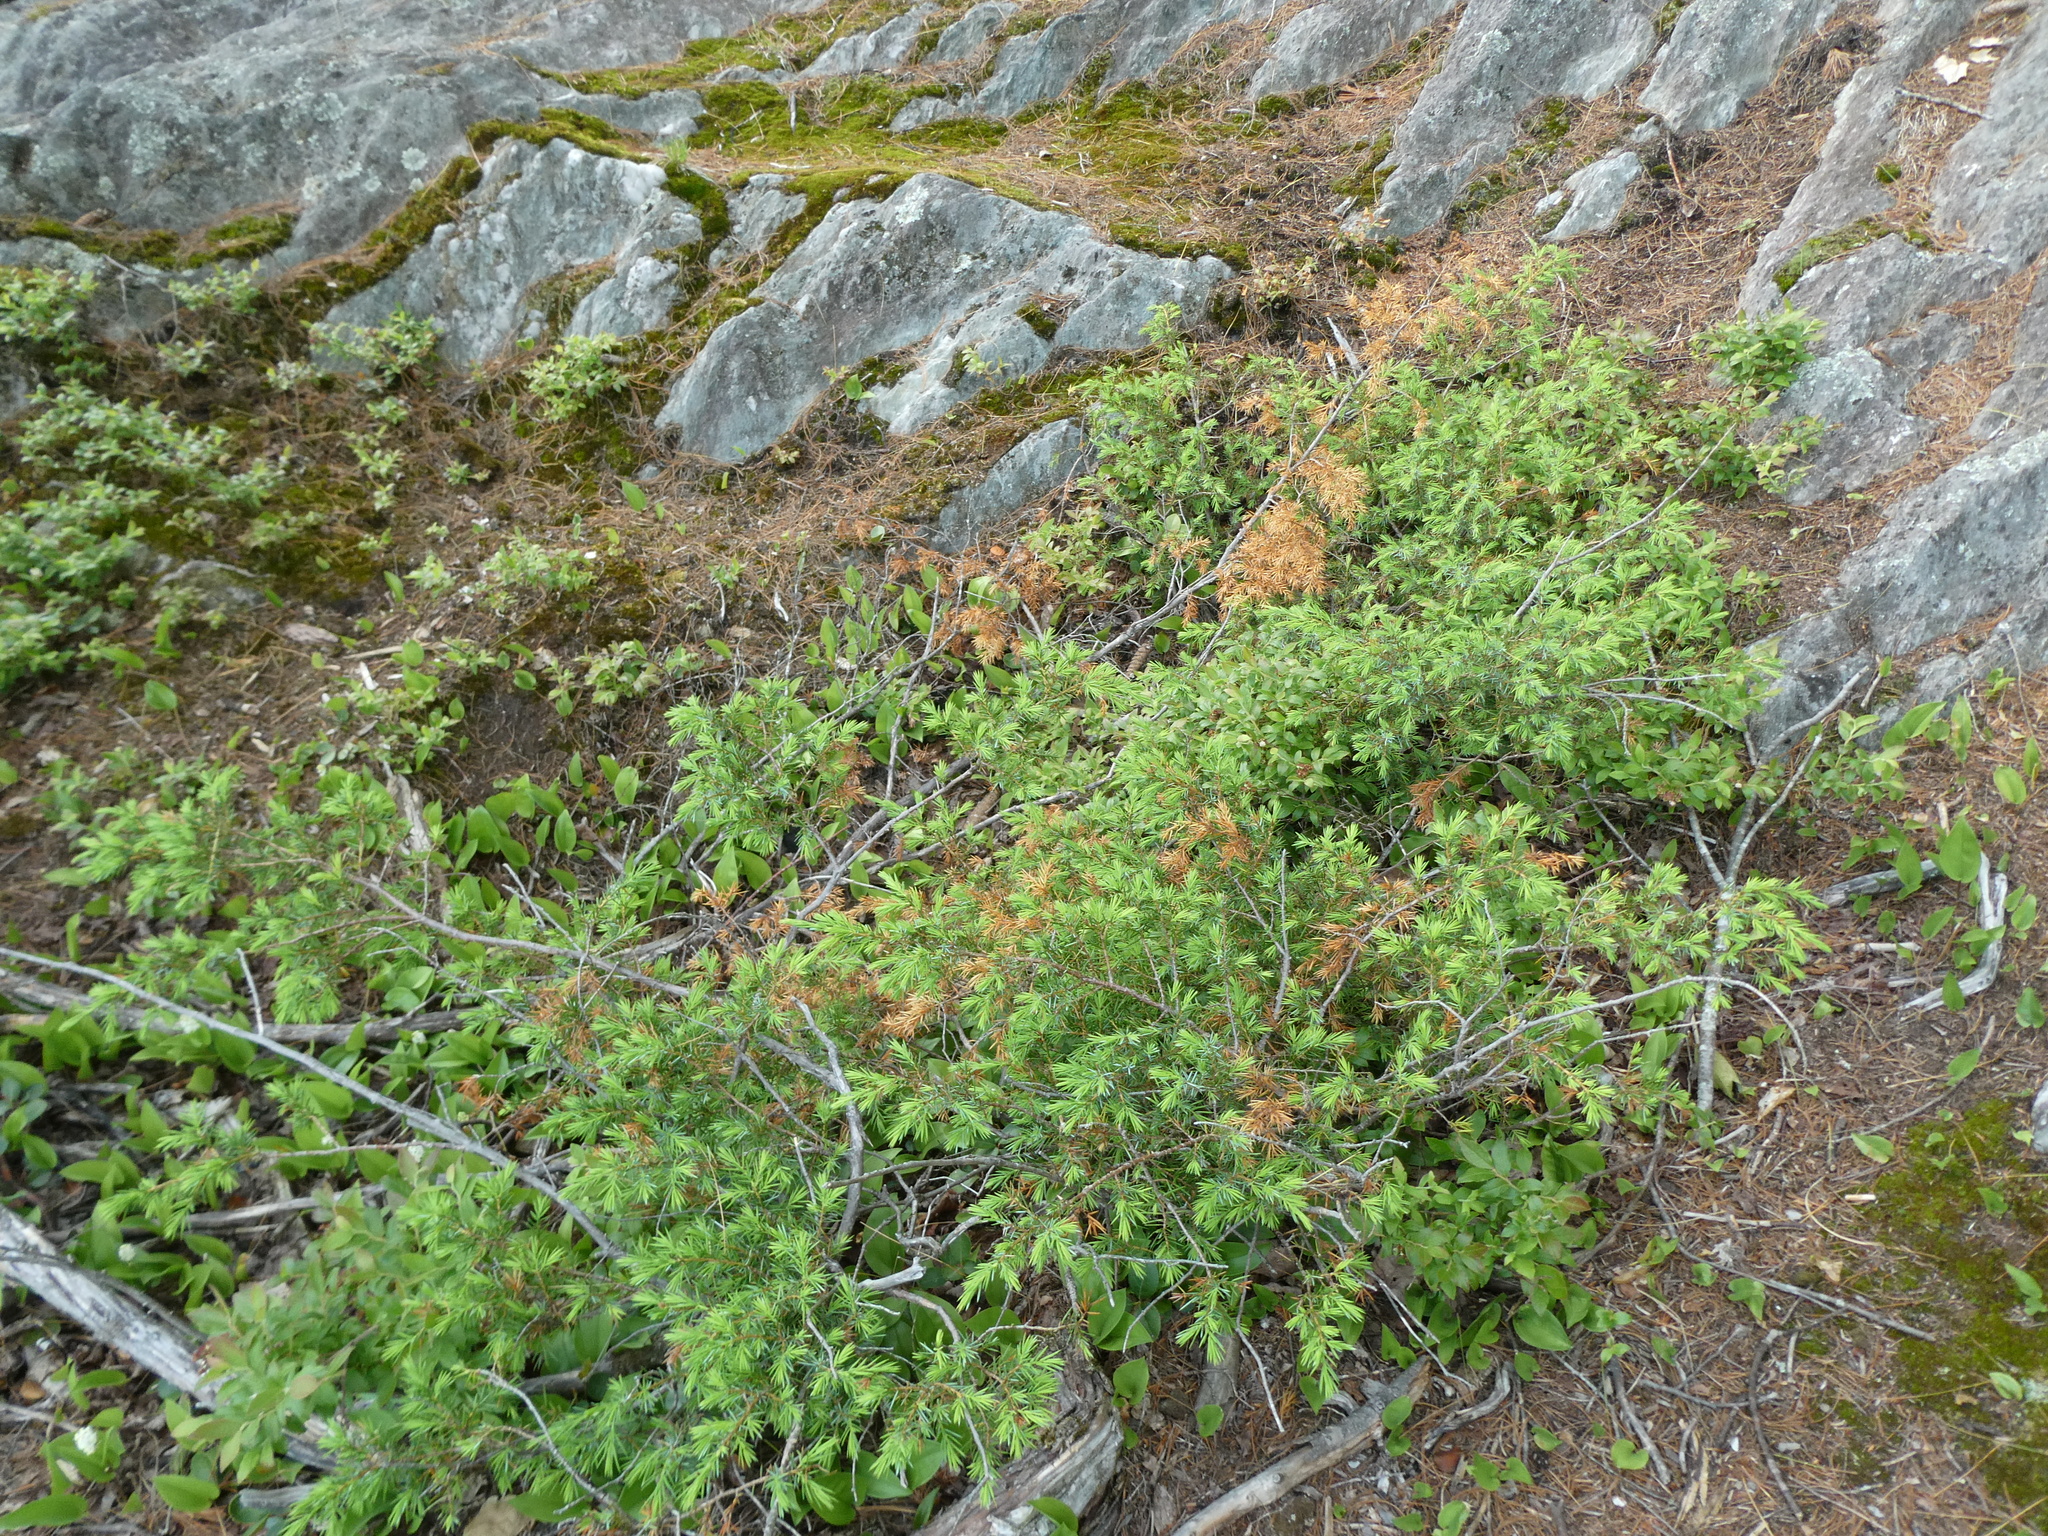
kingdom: Plantae
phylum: Tracheophyta
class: Pinopsida
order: Pinales
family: Cupressaceae
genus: Juniperus
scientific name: Juniperus communis
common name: Common juniper
